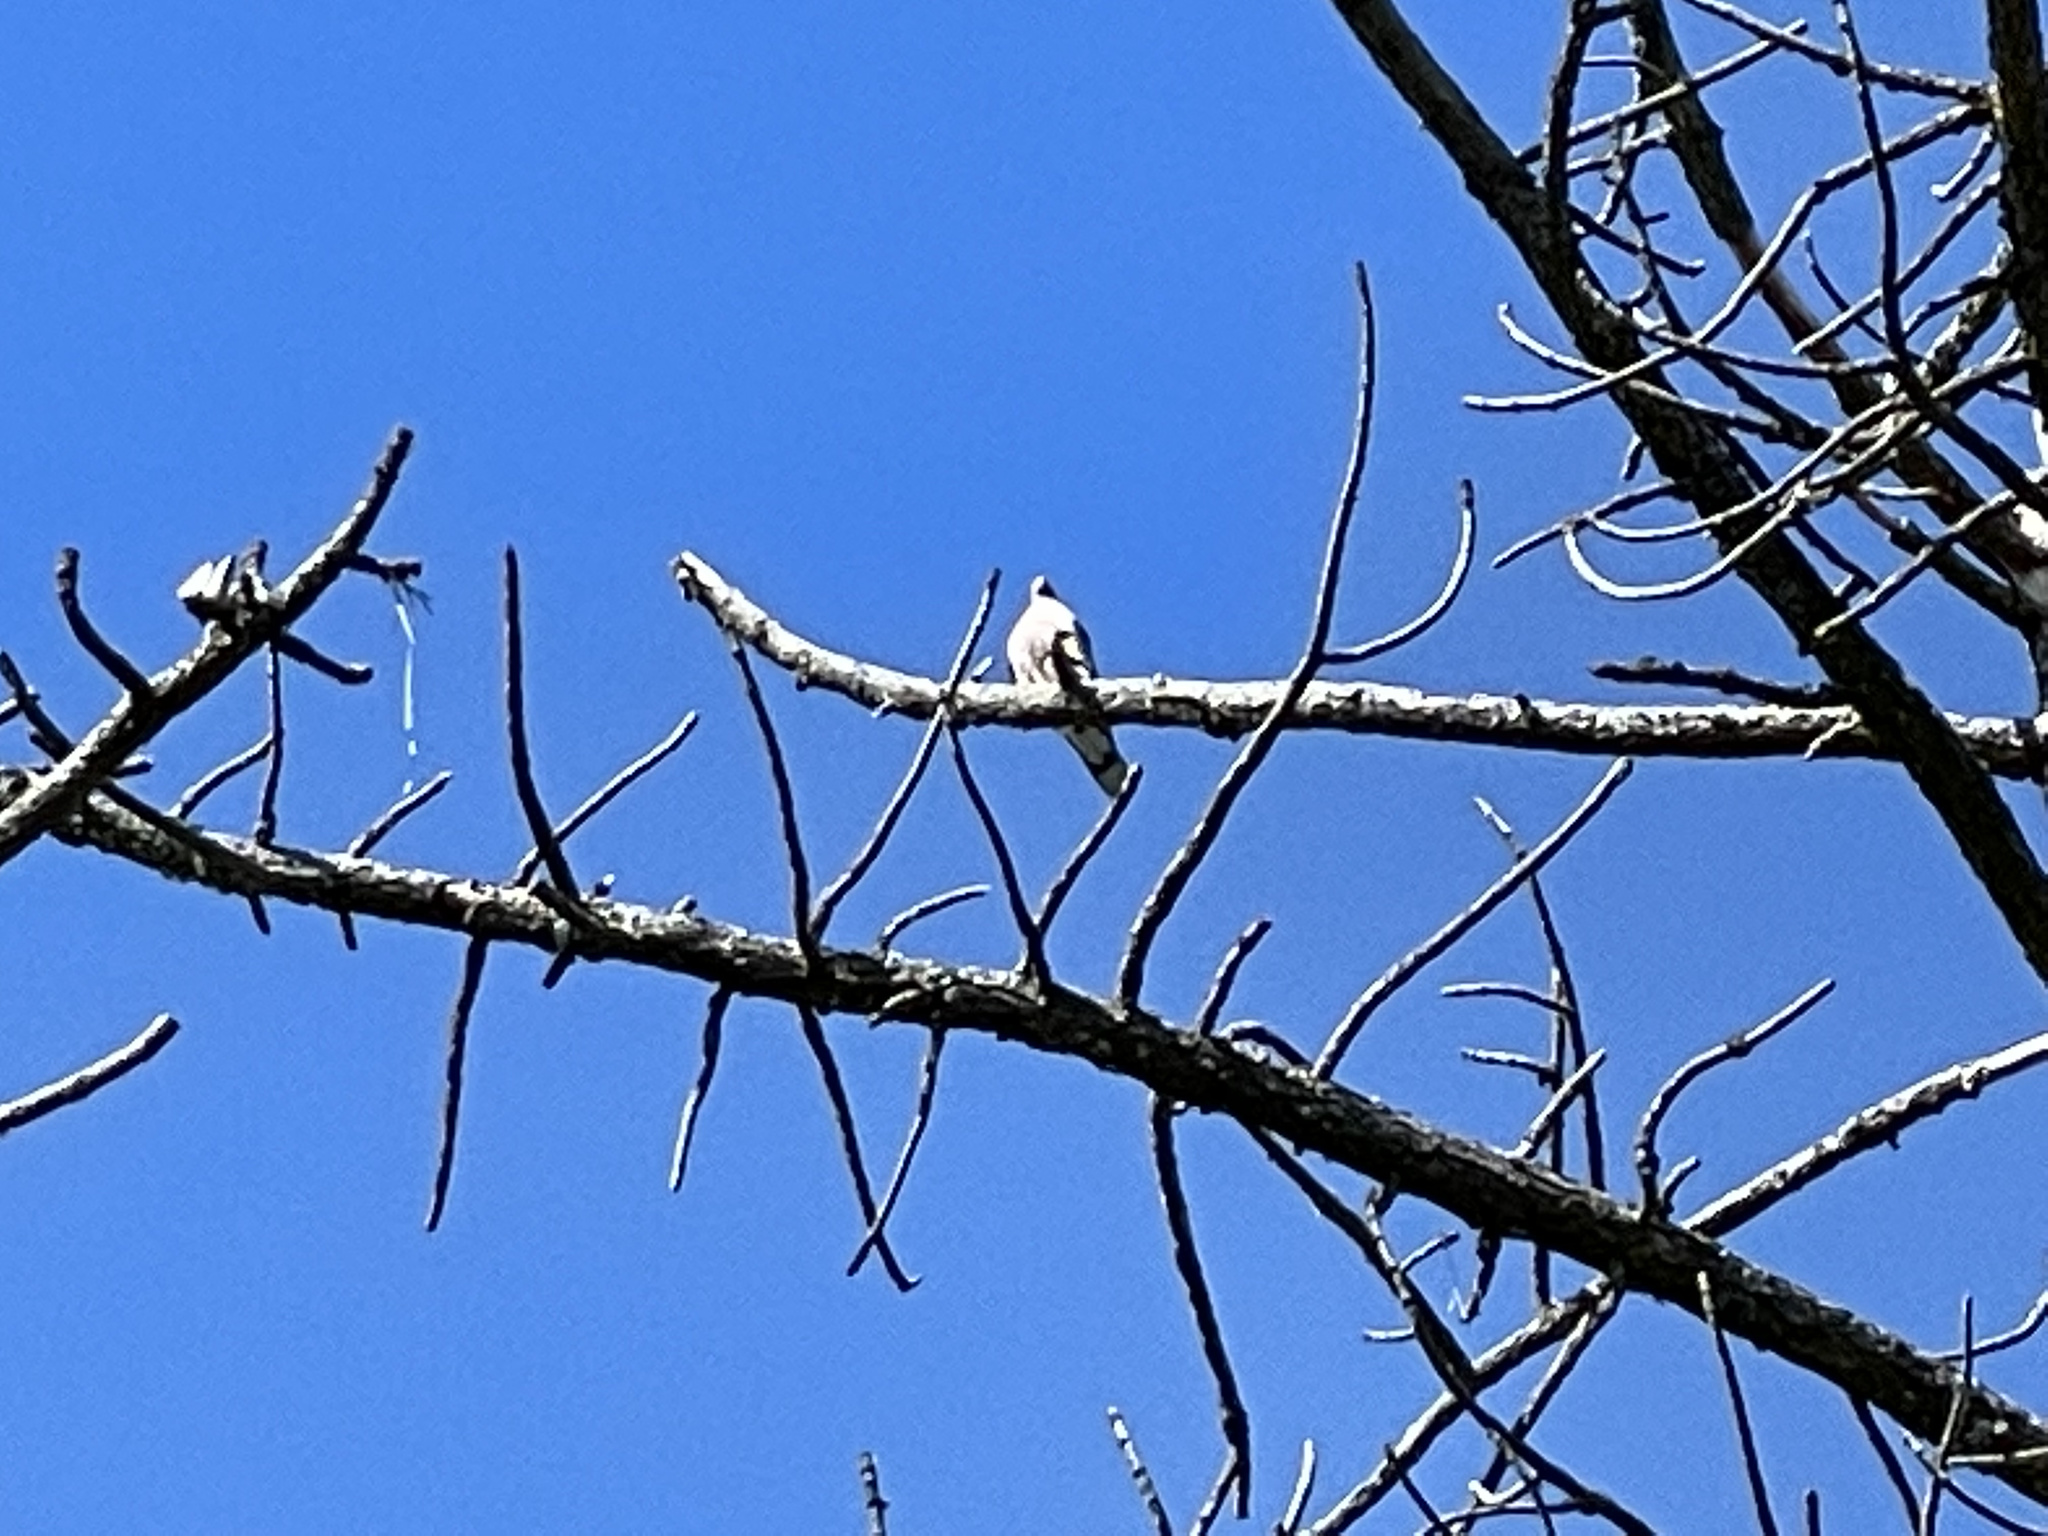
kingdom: Animalia
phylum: Chordata
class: Aves
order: Columbiformes
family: Columbidae
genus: Patagioenas
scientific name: Patagioenas fasciata
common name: Band-tailed pigeon
